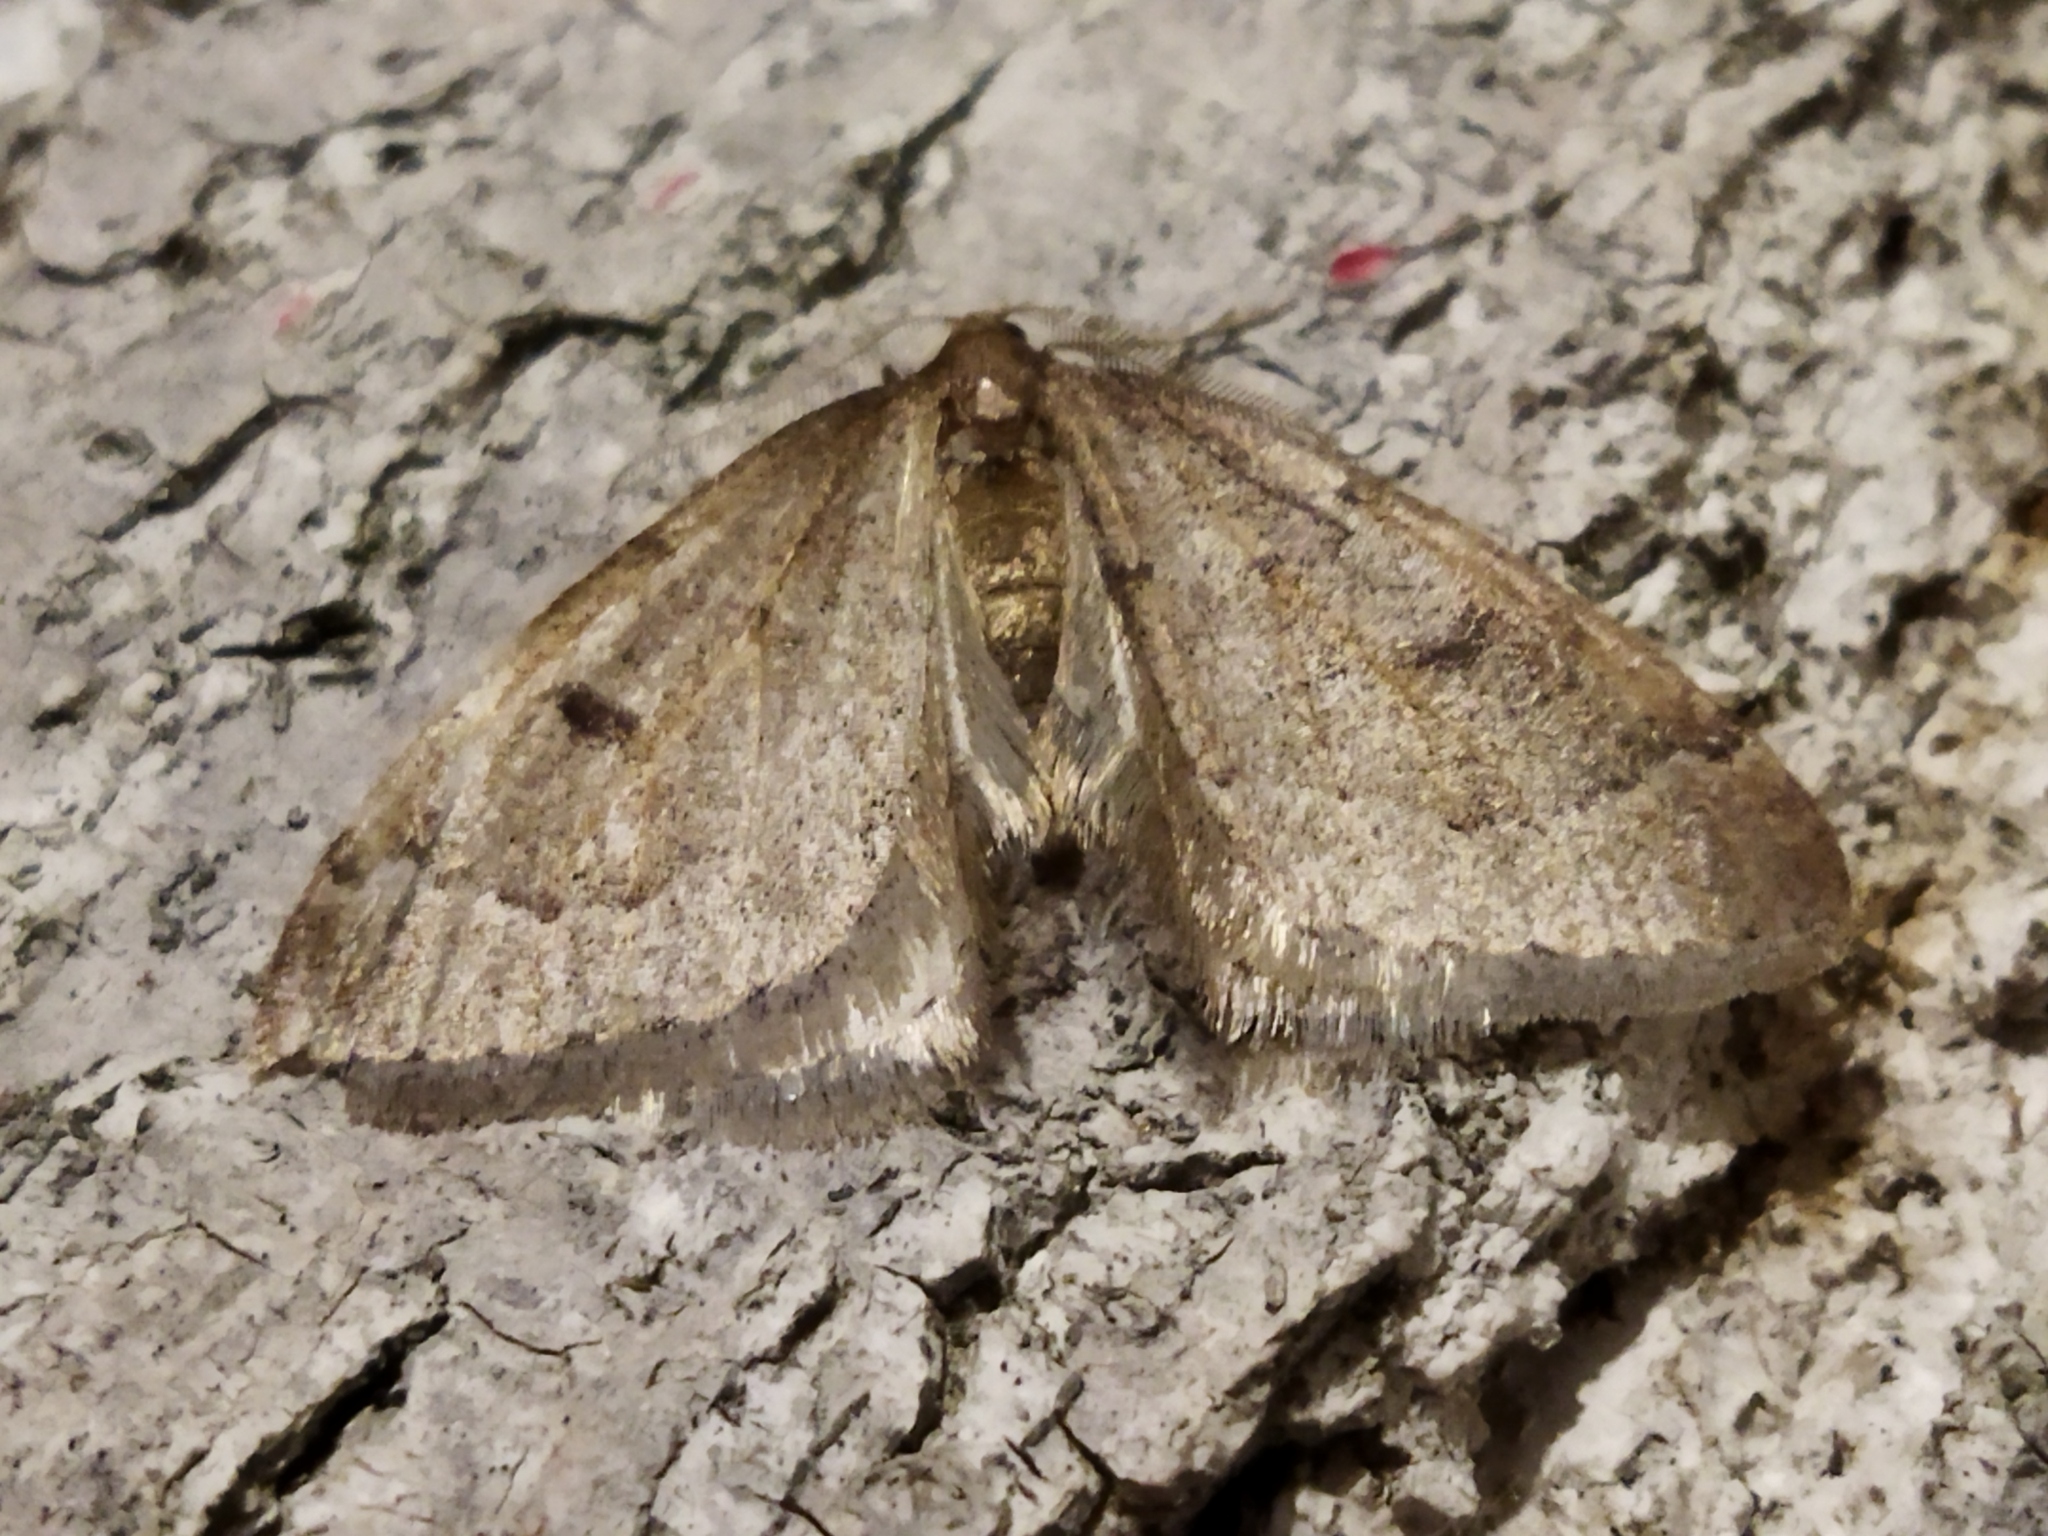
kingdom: Animalia
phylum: Arthropoda
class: Insecta
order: Lepidoptera
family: Geometridae
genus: Theria
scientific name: Theria rupicapraria
